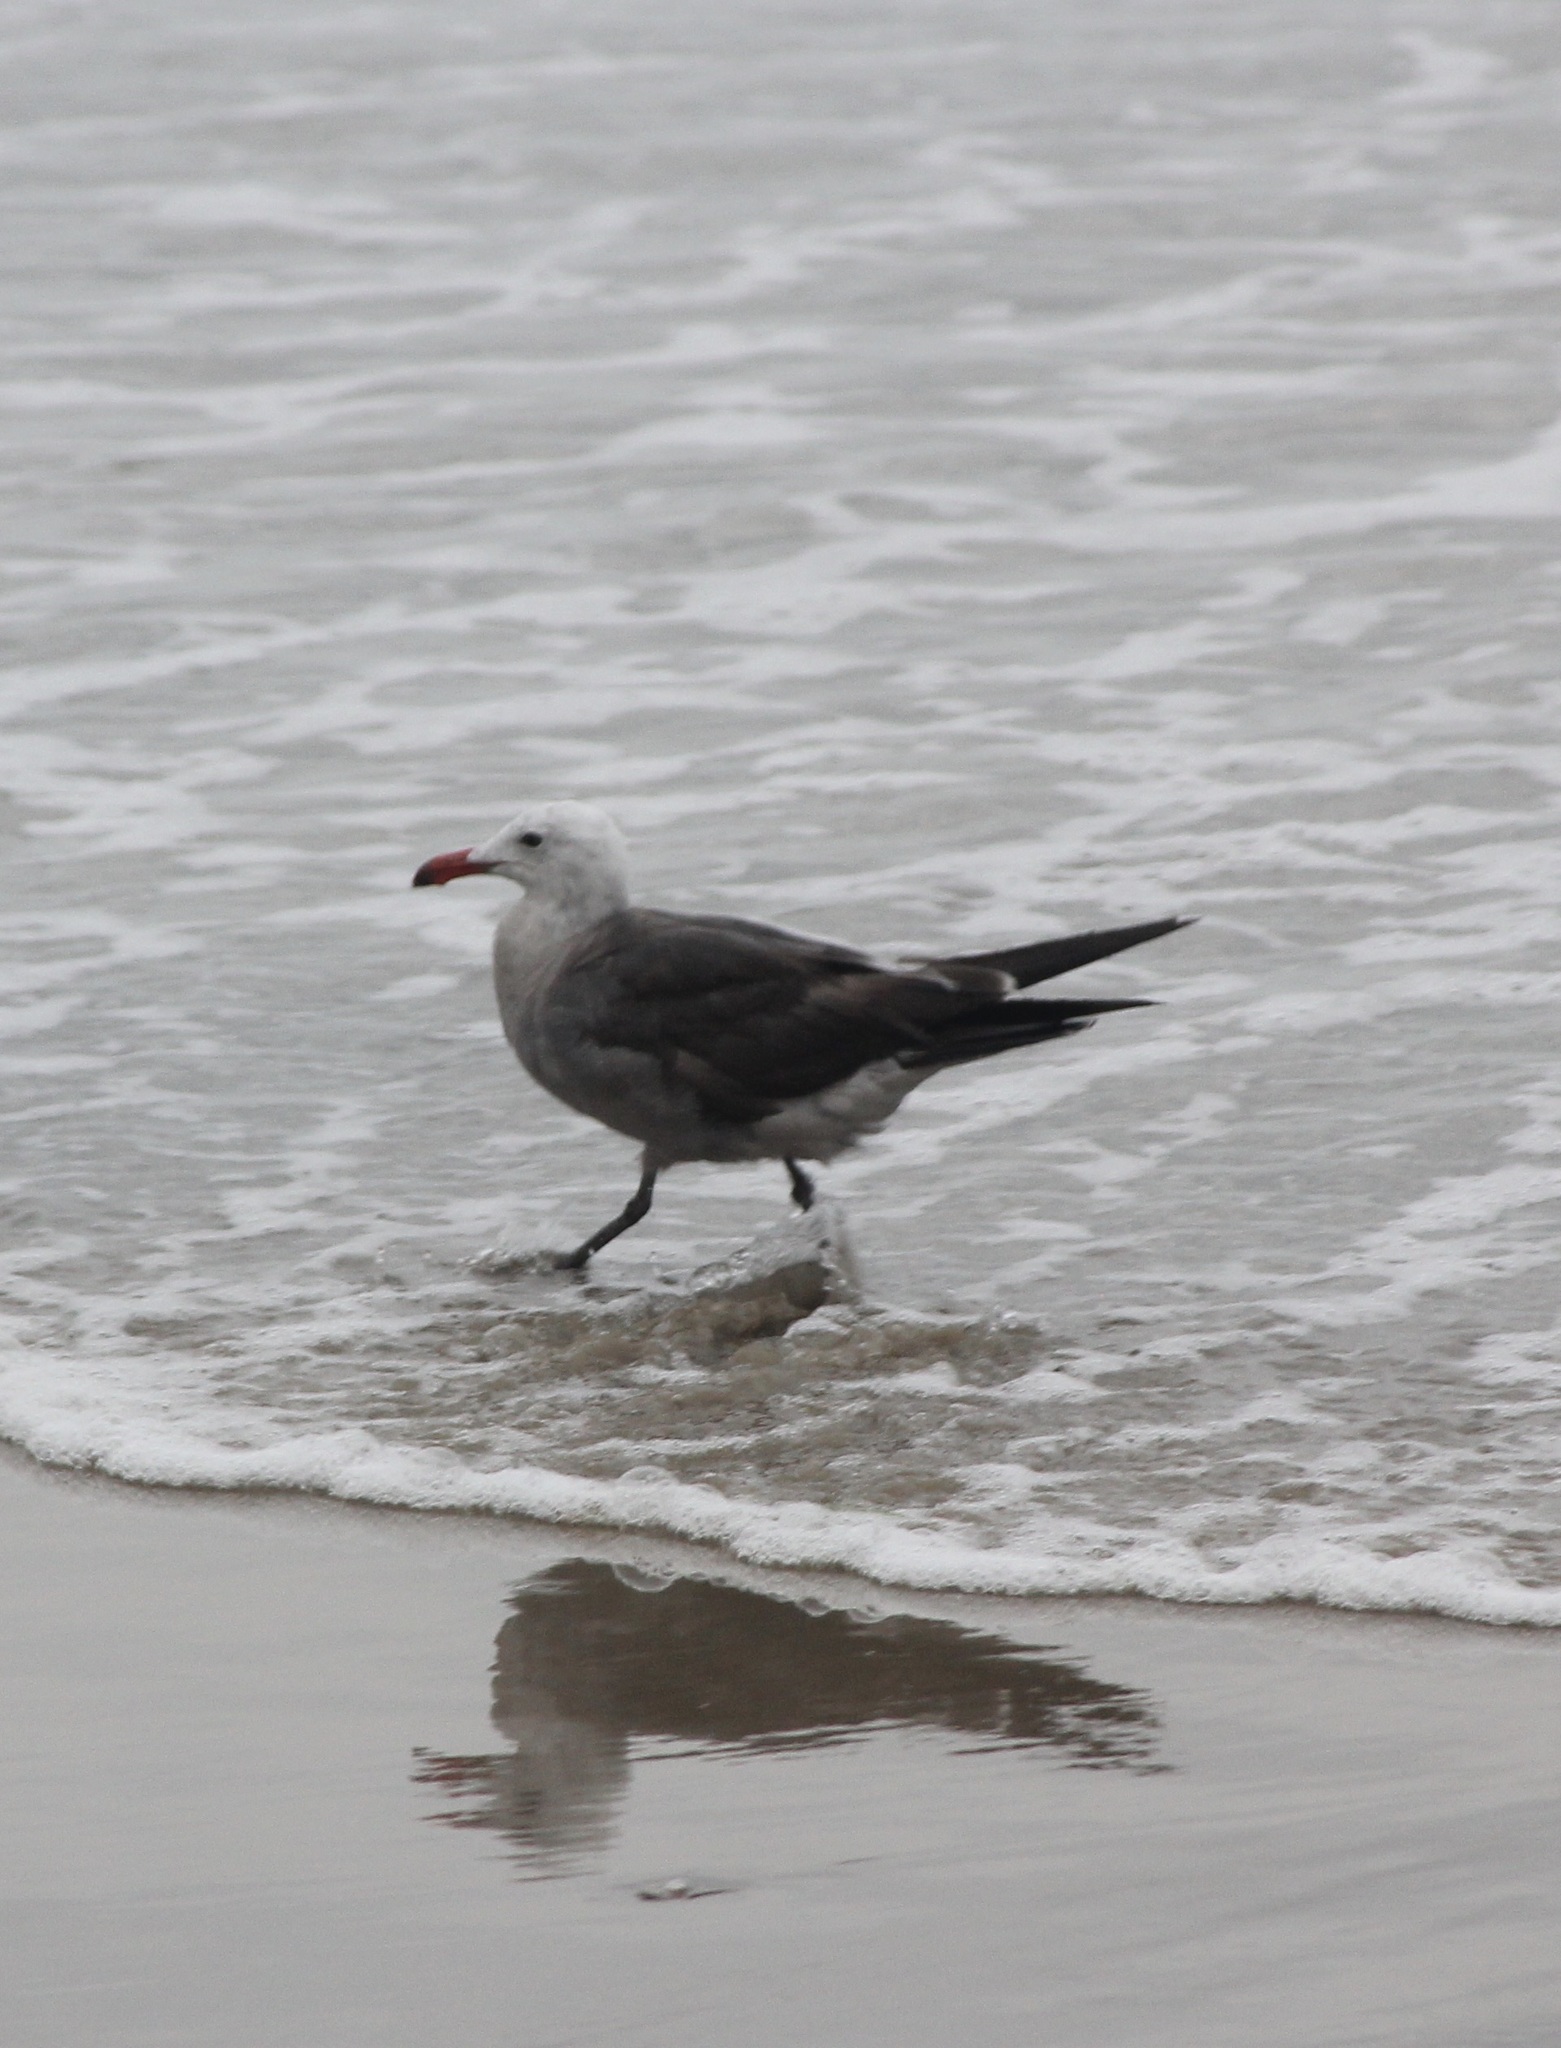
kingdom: Animalia
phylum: Chordata
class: Aves
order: Charadriiformes
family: Laridae
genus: Larus
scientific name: Larus heermanni
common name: Heermann's gull
